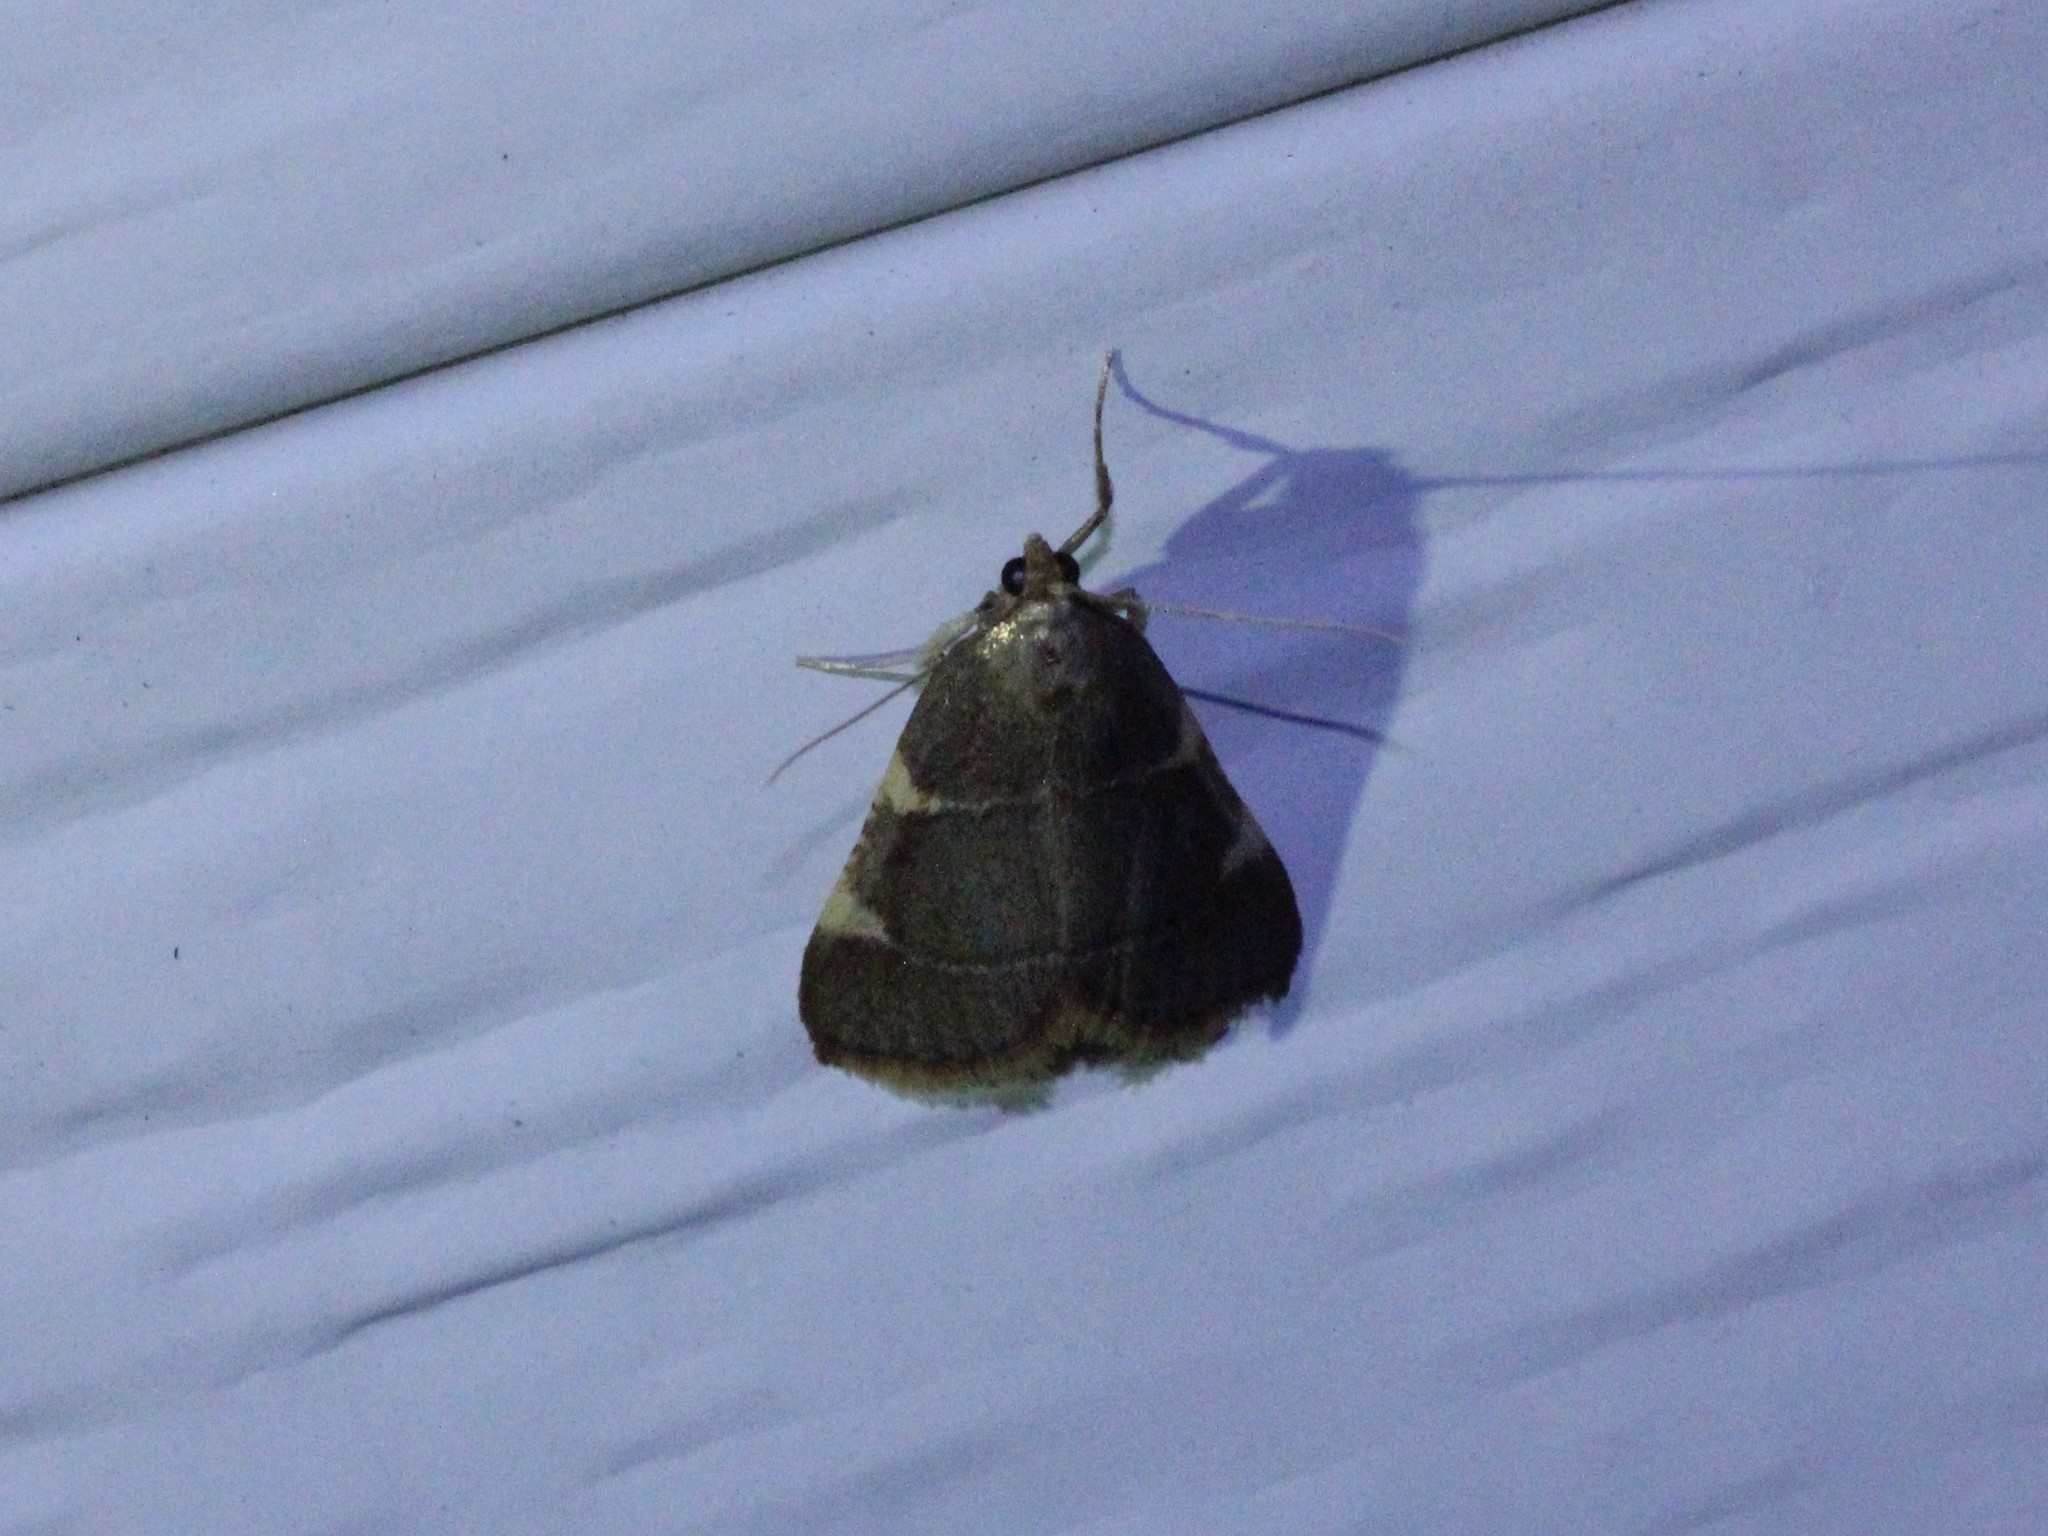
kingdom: Animalia
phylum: Arthropoda
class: Insecta
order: Lepidoptera
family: Pyralidae
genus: Hypsopygia
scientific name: Hypsopygia olinalis
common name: Yellow-fringed dolichomia moth
